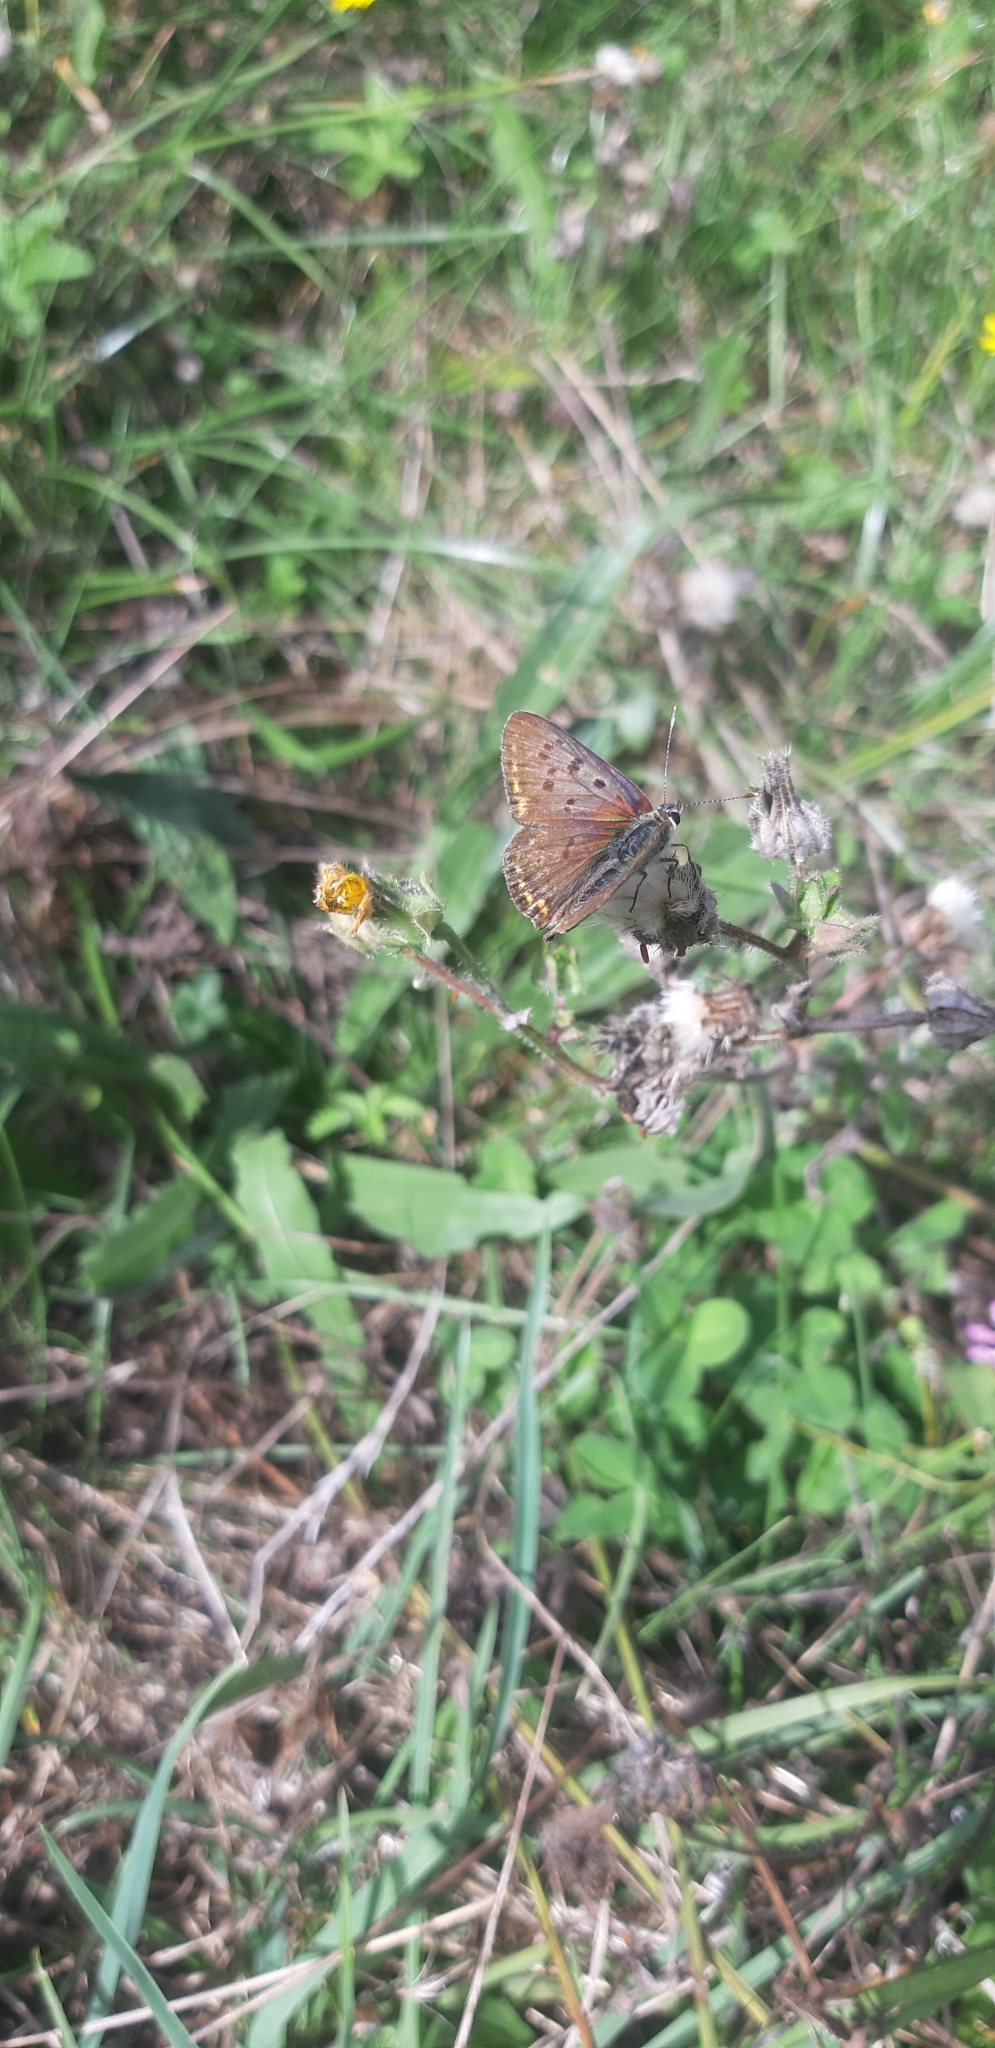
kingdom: Animalia
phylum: Arthropoda
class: Insecta
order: Lepidoptera
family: Lycaenidae
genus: Loweia
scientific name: Loweia tityrus
